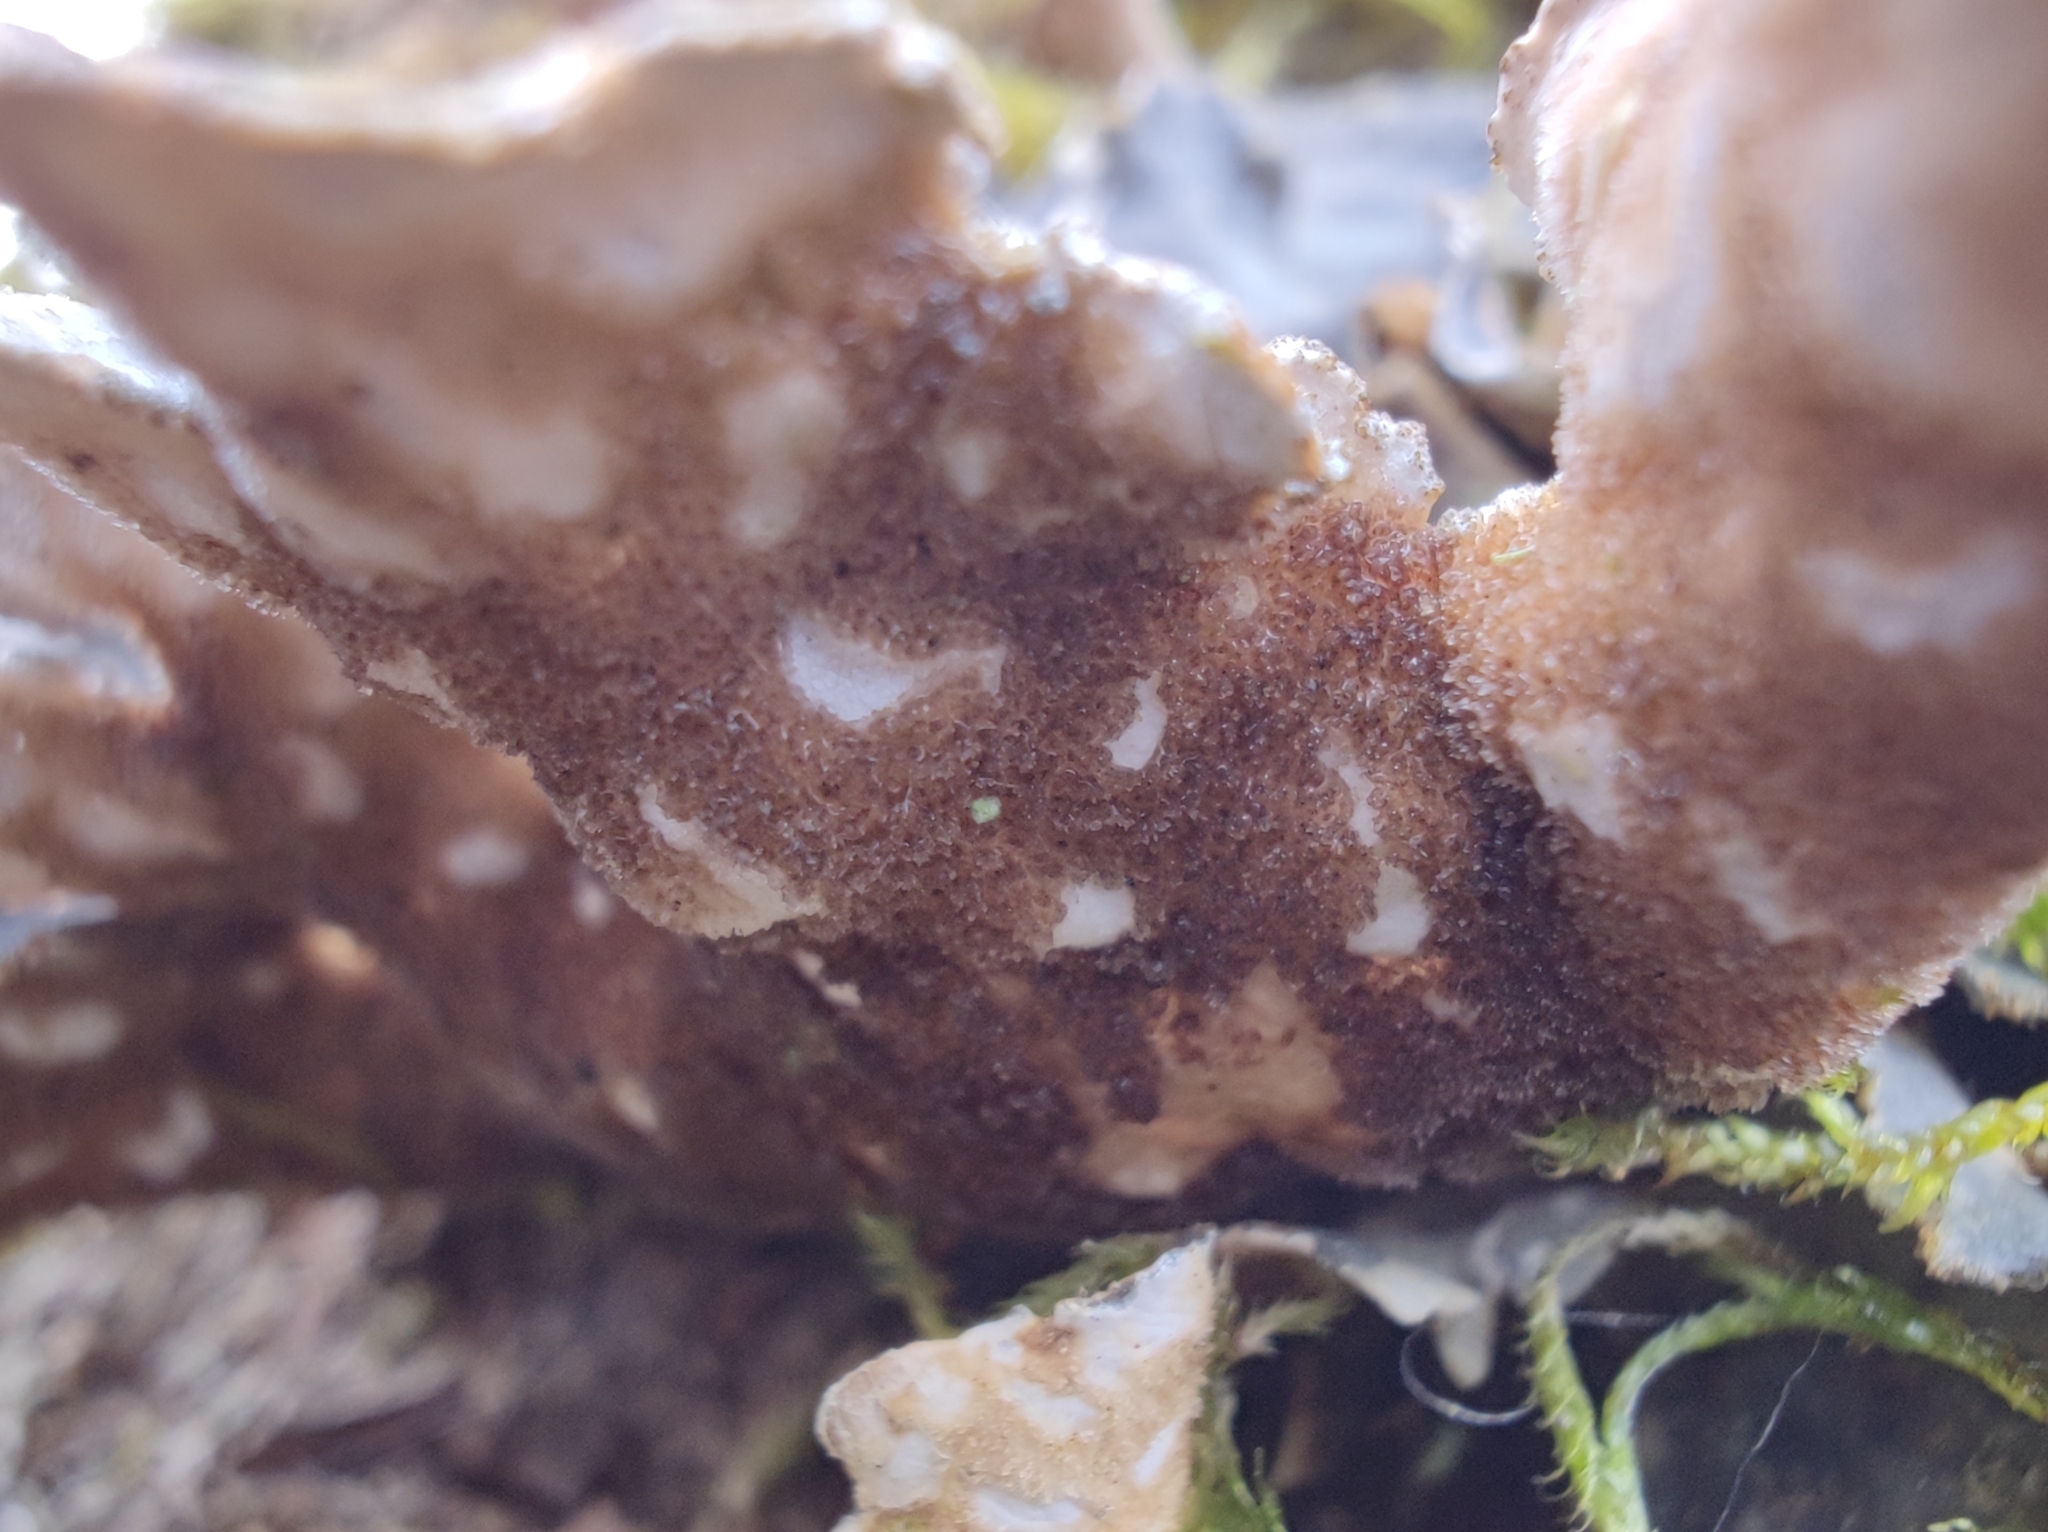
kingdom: Fungi
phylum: Ascomycota
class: Lecanoromycetes
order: Peltigerales
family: Lobariaceae
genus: Lobarina
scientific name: Lobarina scrobiculata
